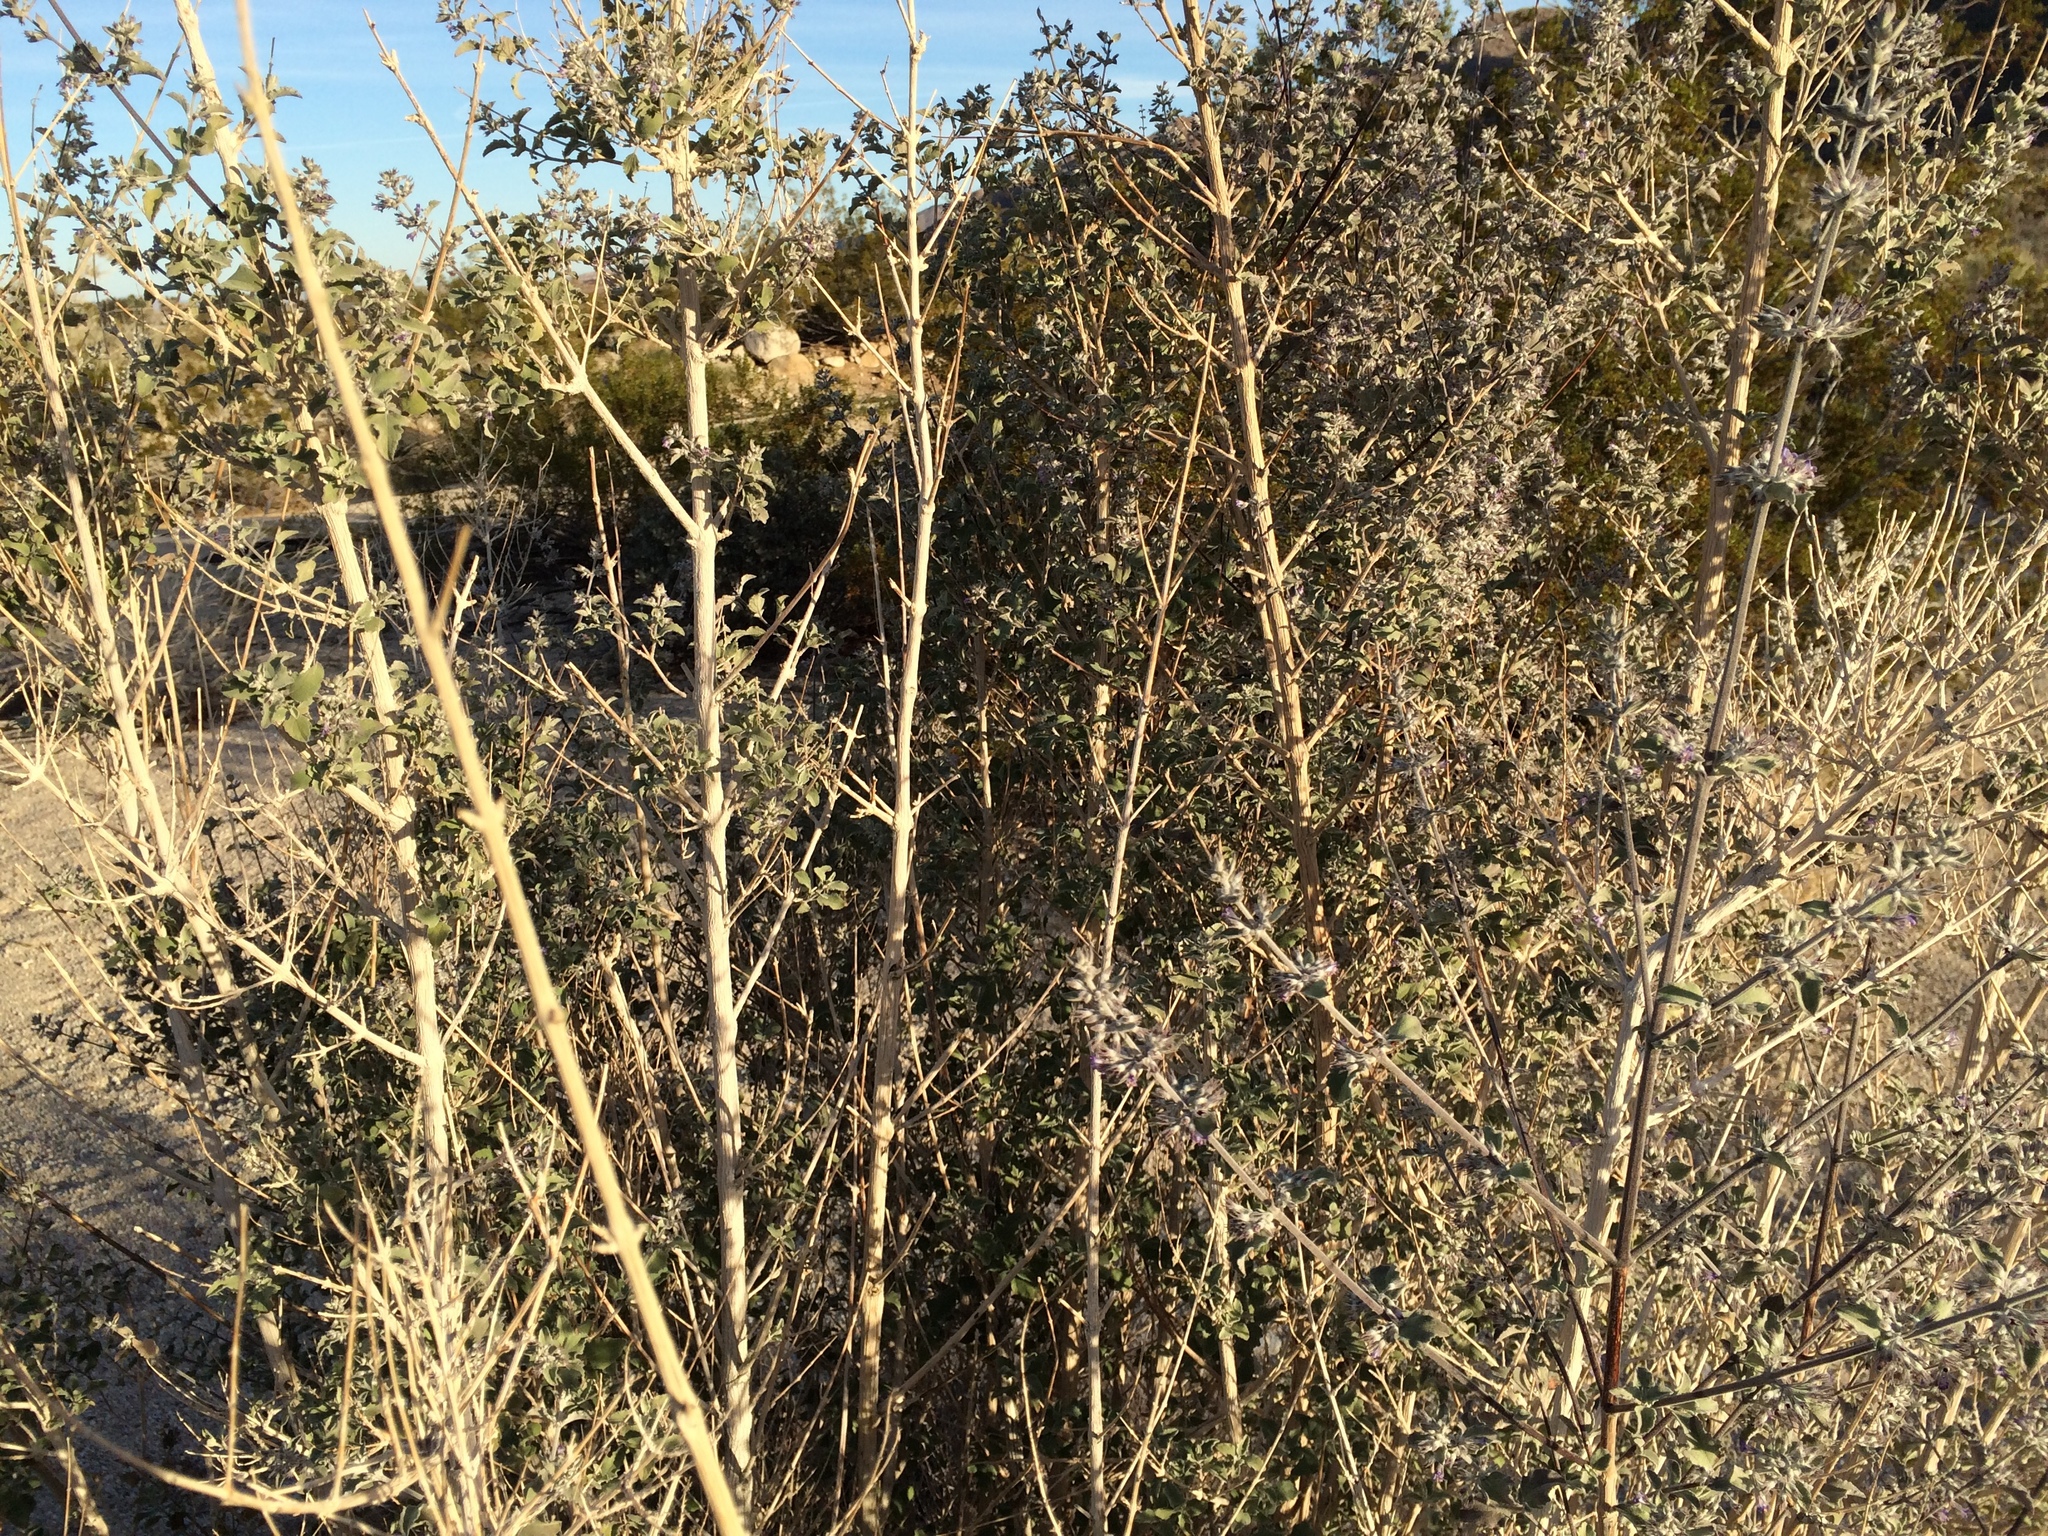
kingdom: Plantae
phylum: Tracheophyta
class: Magnoliopsida
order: Lamiales
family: Lamiaceae
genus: Condea
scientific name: Condea emoryi
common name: Chia
